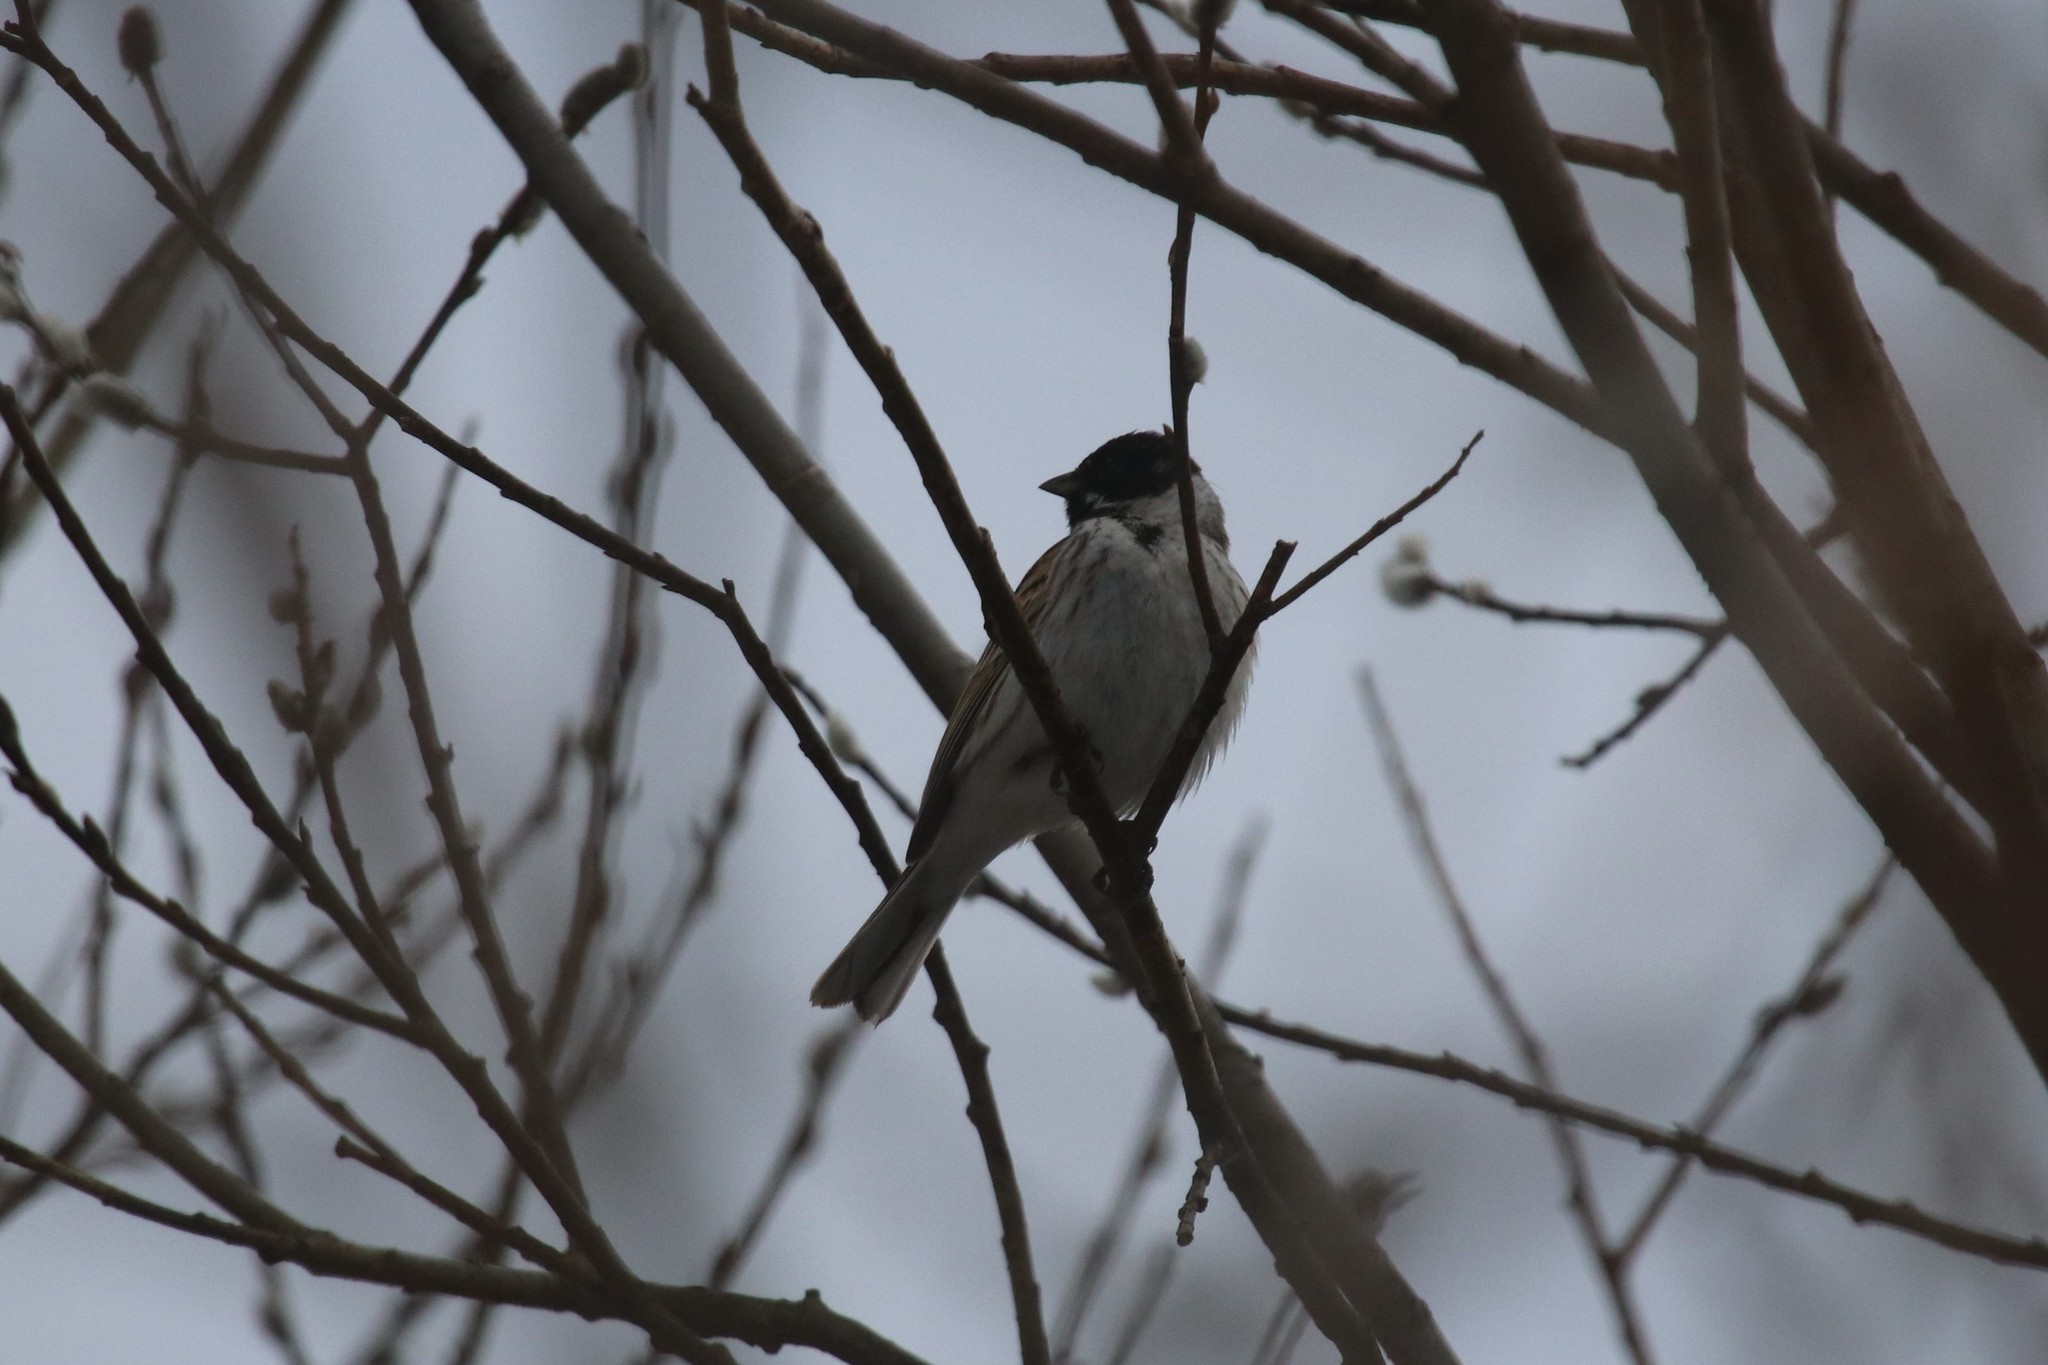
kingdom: Animalia
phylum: Chordata
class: Aves
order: Passeriformes
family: Emberizidae
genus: Emberiza
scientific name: Emberiza schoeniclus
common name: Reed bunting
